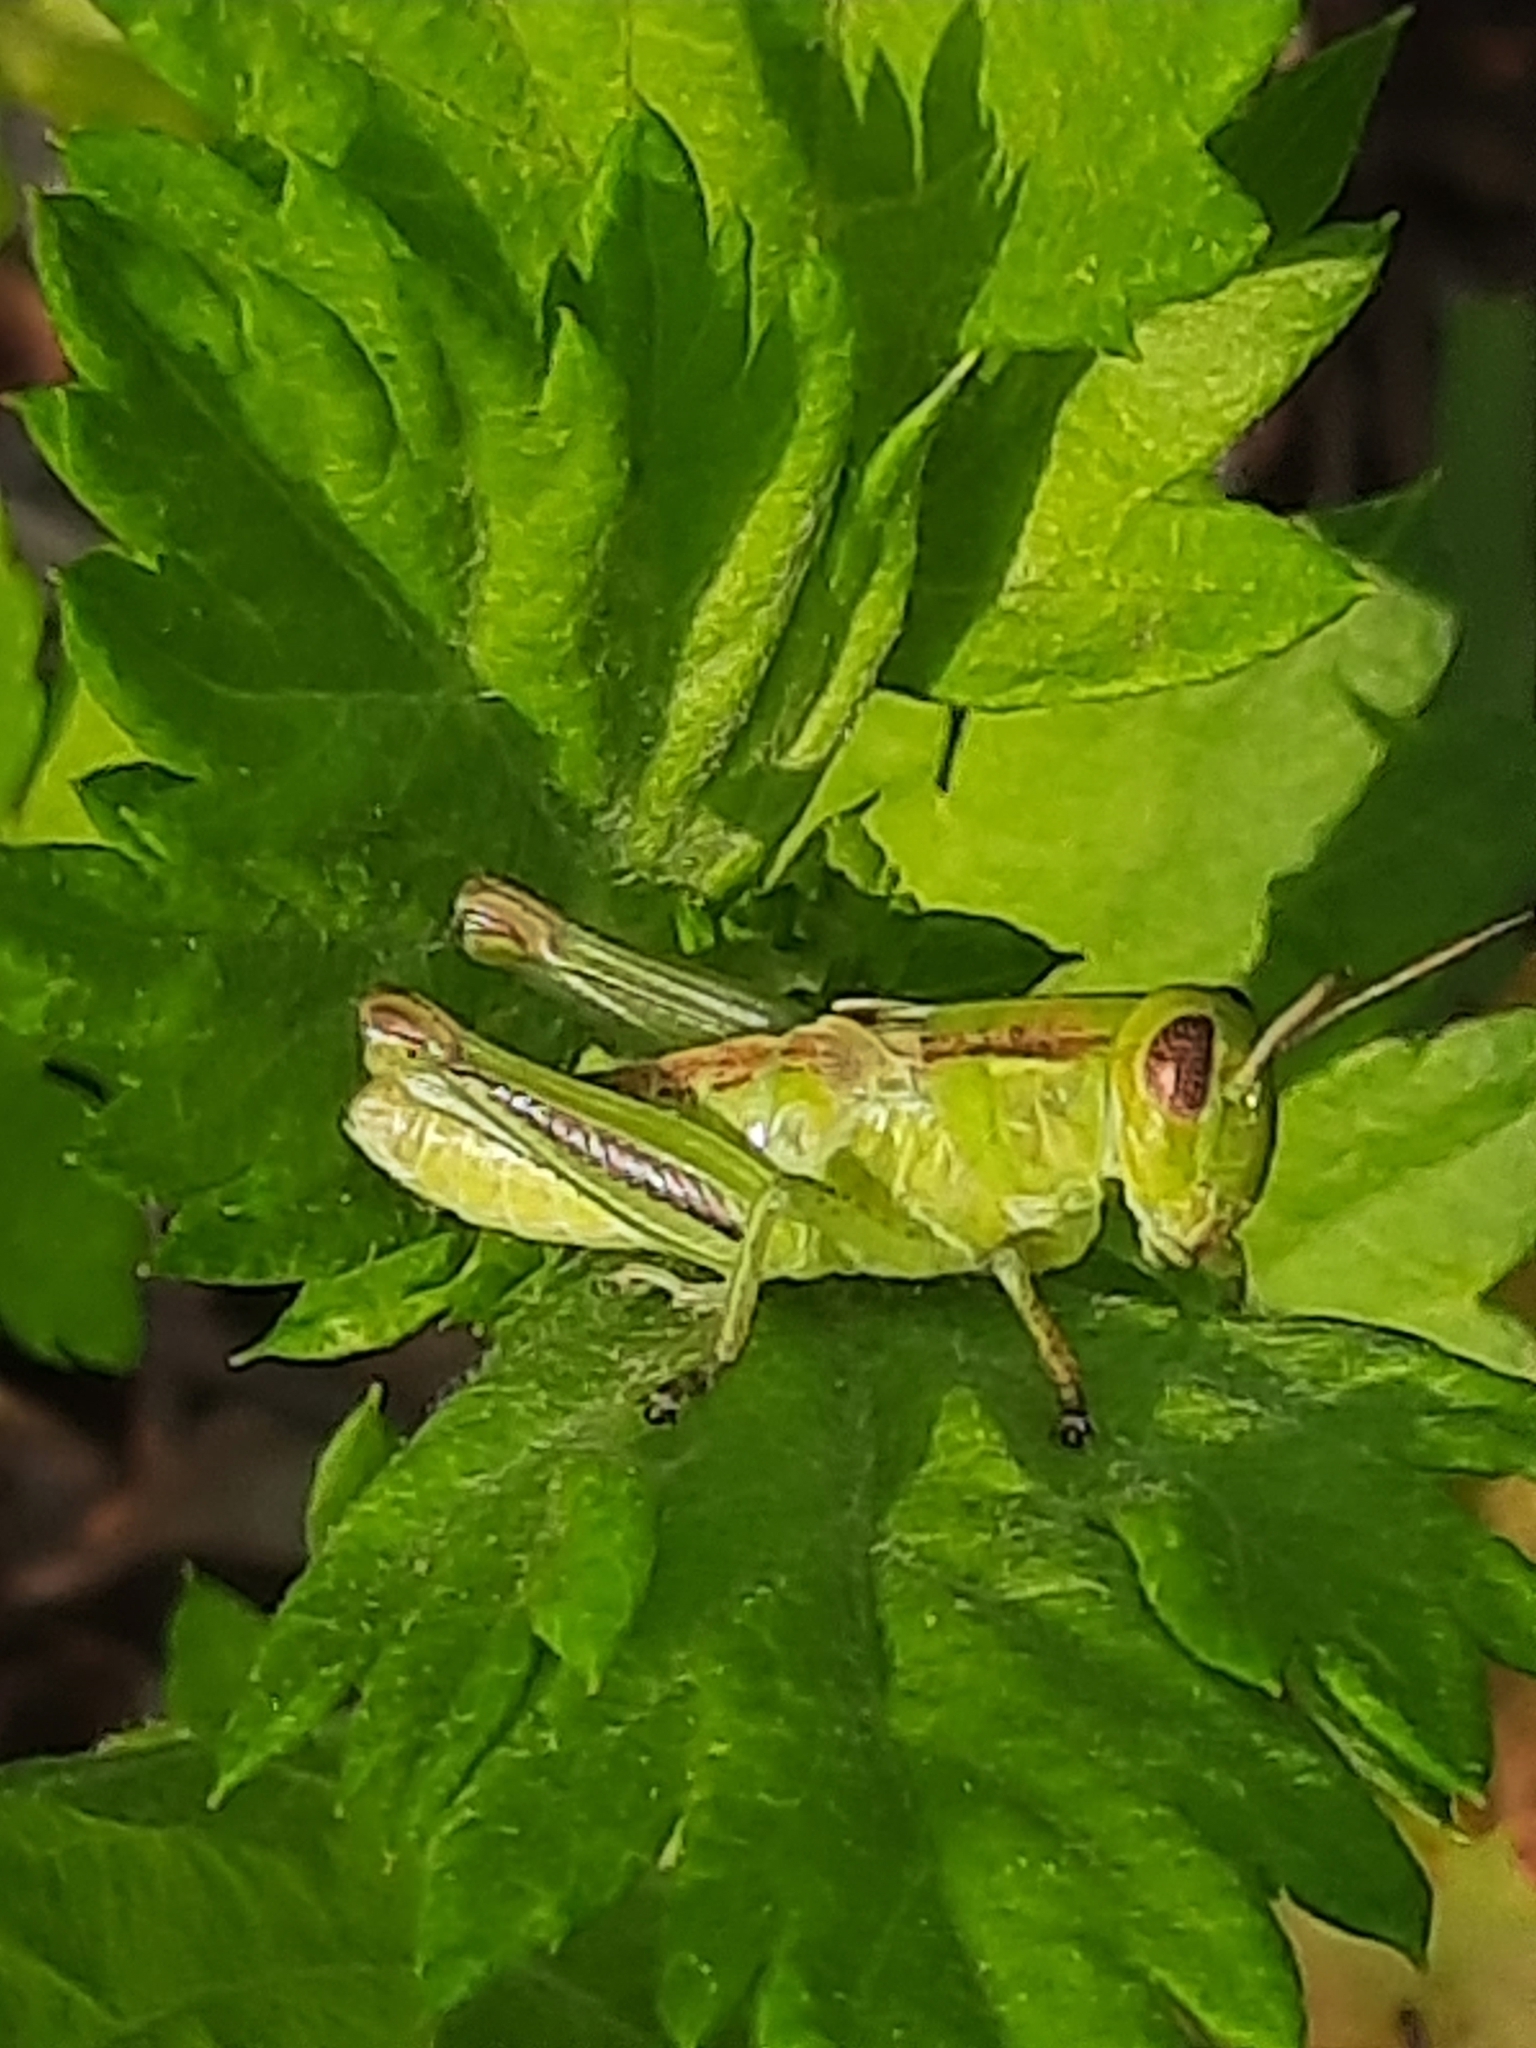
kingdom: Animalia
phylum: Arthropoda
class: Insecta
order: Orthoptera
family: Acrididae
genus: Melanoplus
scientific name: Melanoplus bivittatus
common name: Two-striped grasshopper
